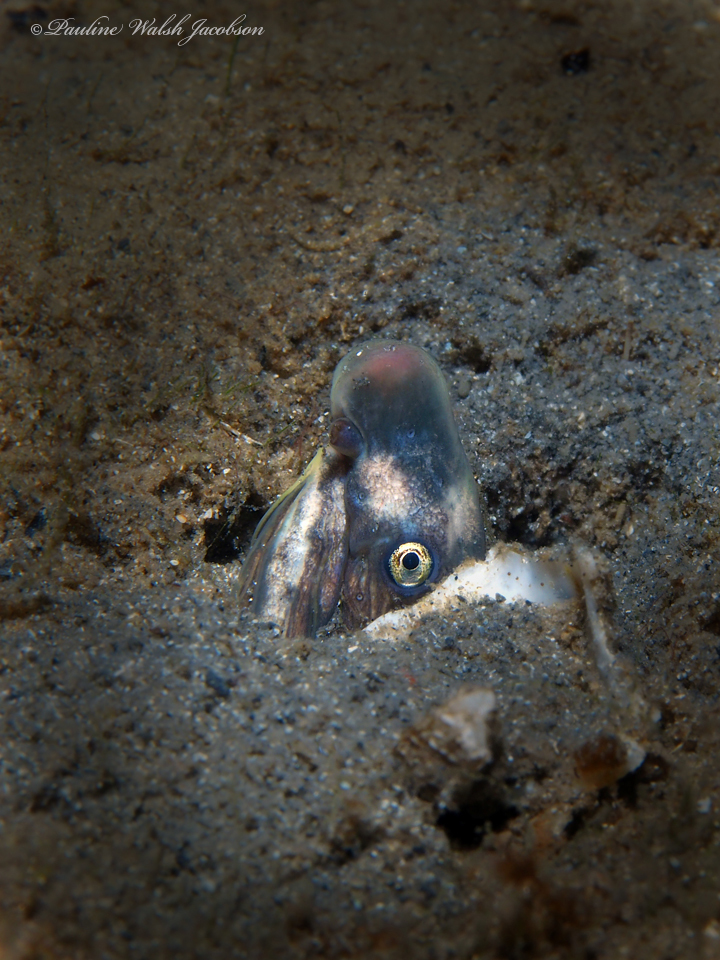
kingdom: Animalia
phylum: Chordata
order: Anguilliformes
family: Ophichthidae
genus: Bascanichthys
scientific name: Bascanichthys bascanium
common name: Sooty eel
